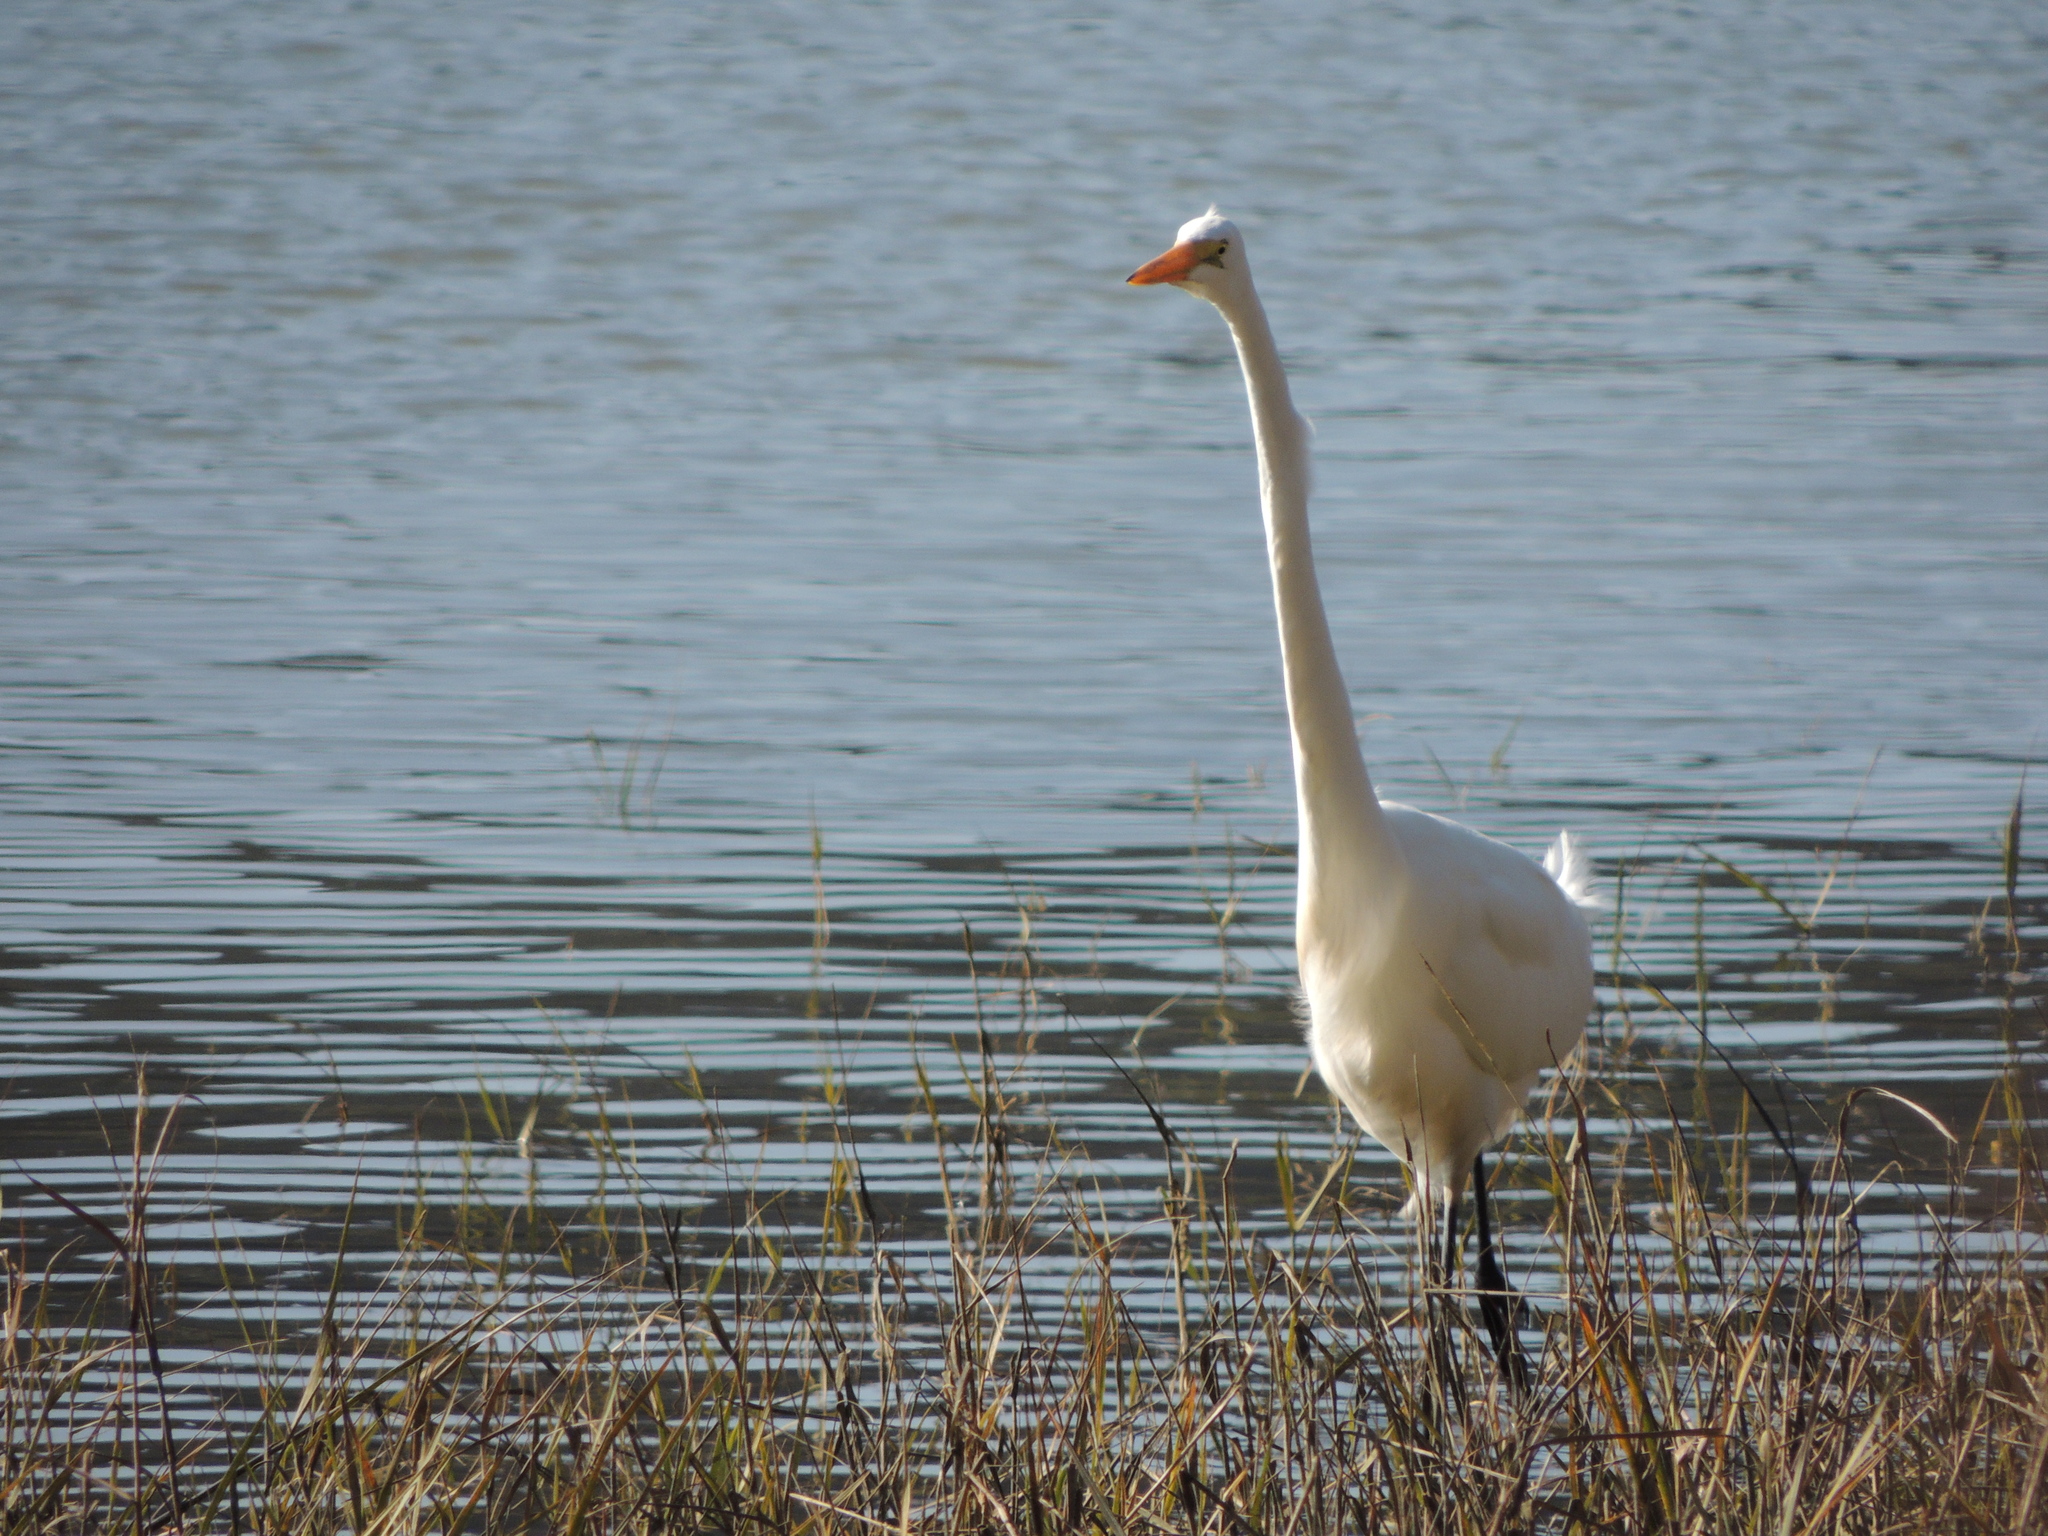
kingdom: Animalia
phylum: Chordata
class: Aves
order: Pelecaniformes
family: Ardeidae
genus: Ardea
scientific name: Ardea alba
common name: Great egret
